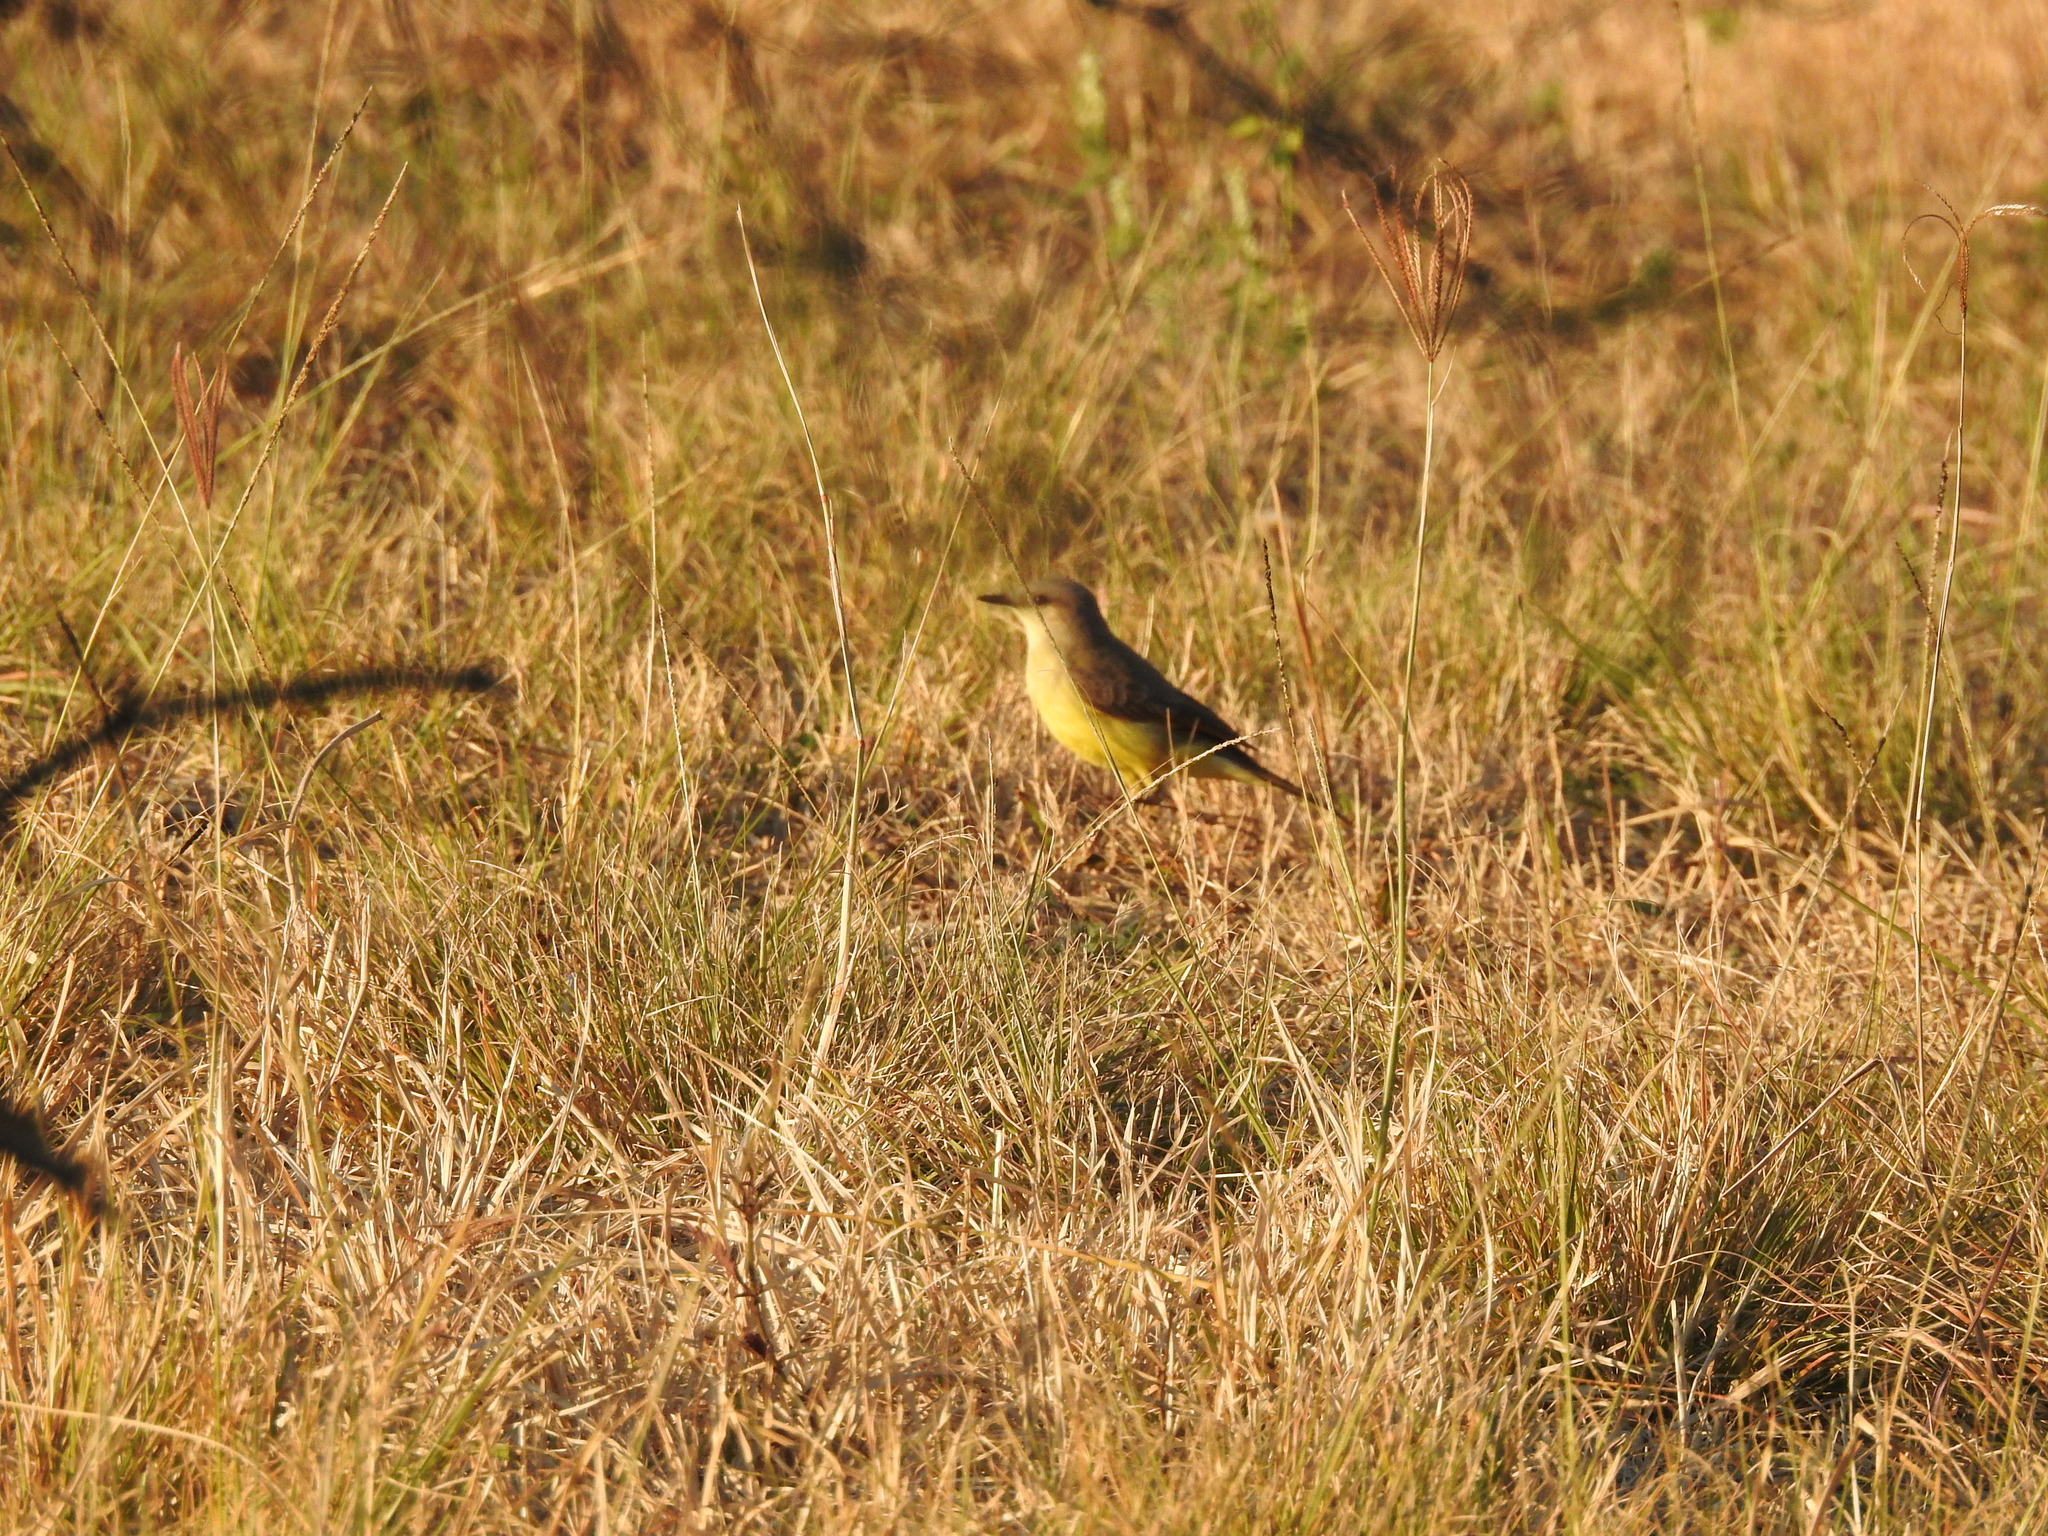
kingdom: Animalia
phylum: Chordata
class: Aves
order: Passeriformes
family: Tyrannidae
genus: Machetornis
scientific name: Machetornis rixosa
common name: Cattle tyrant
